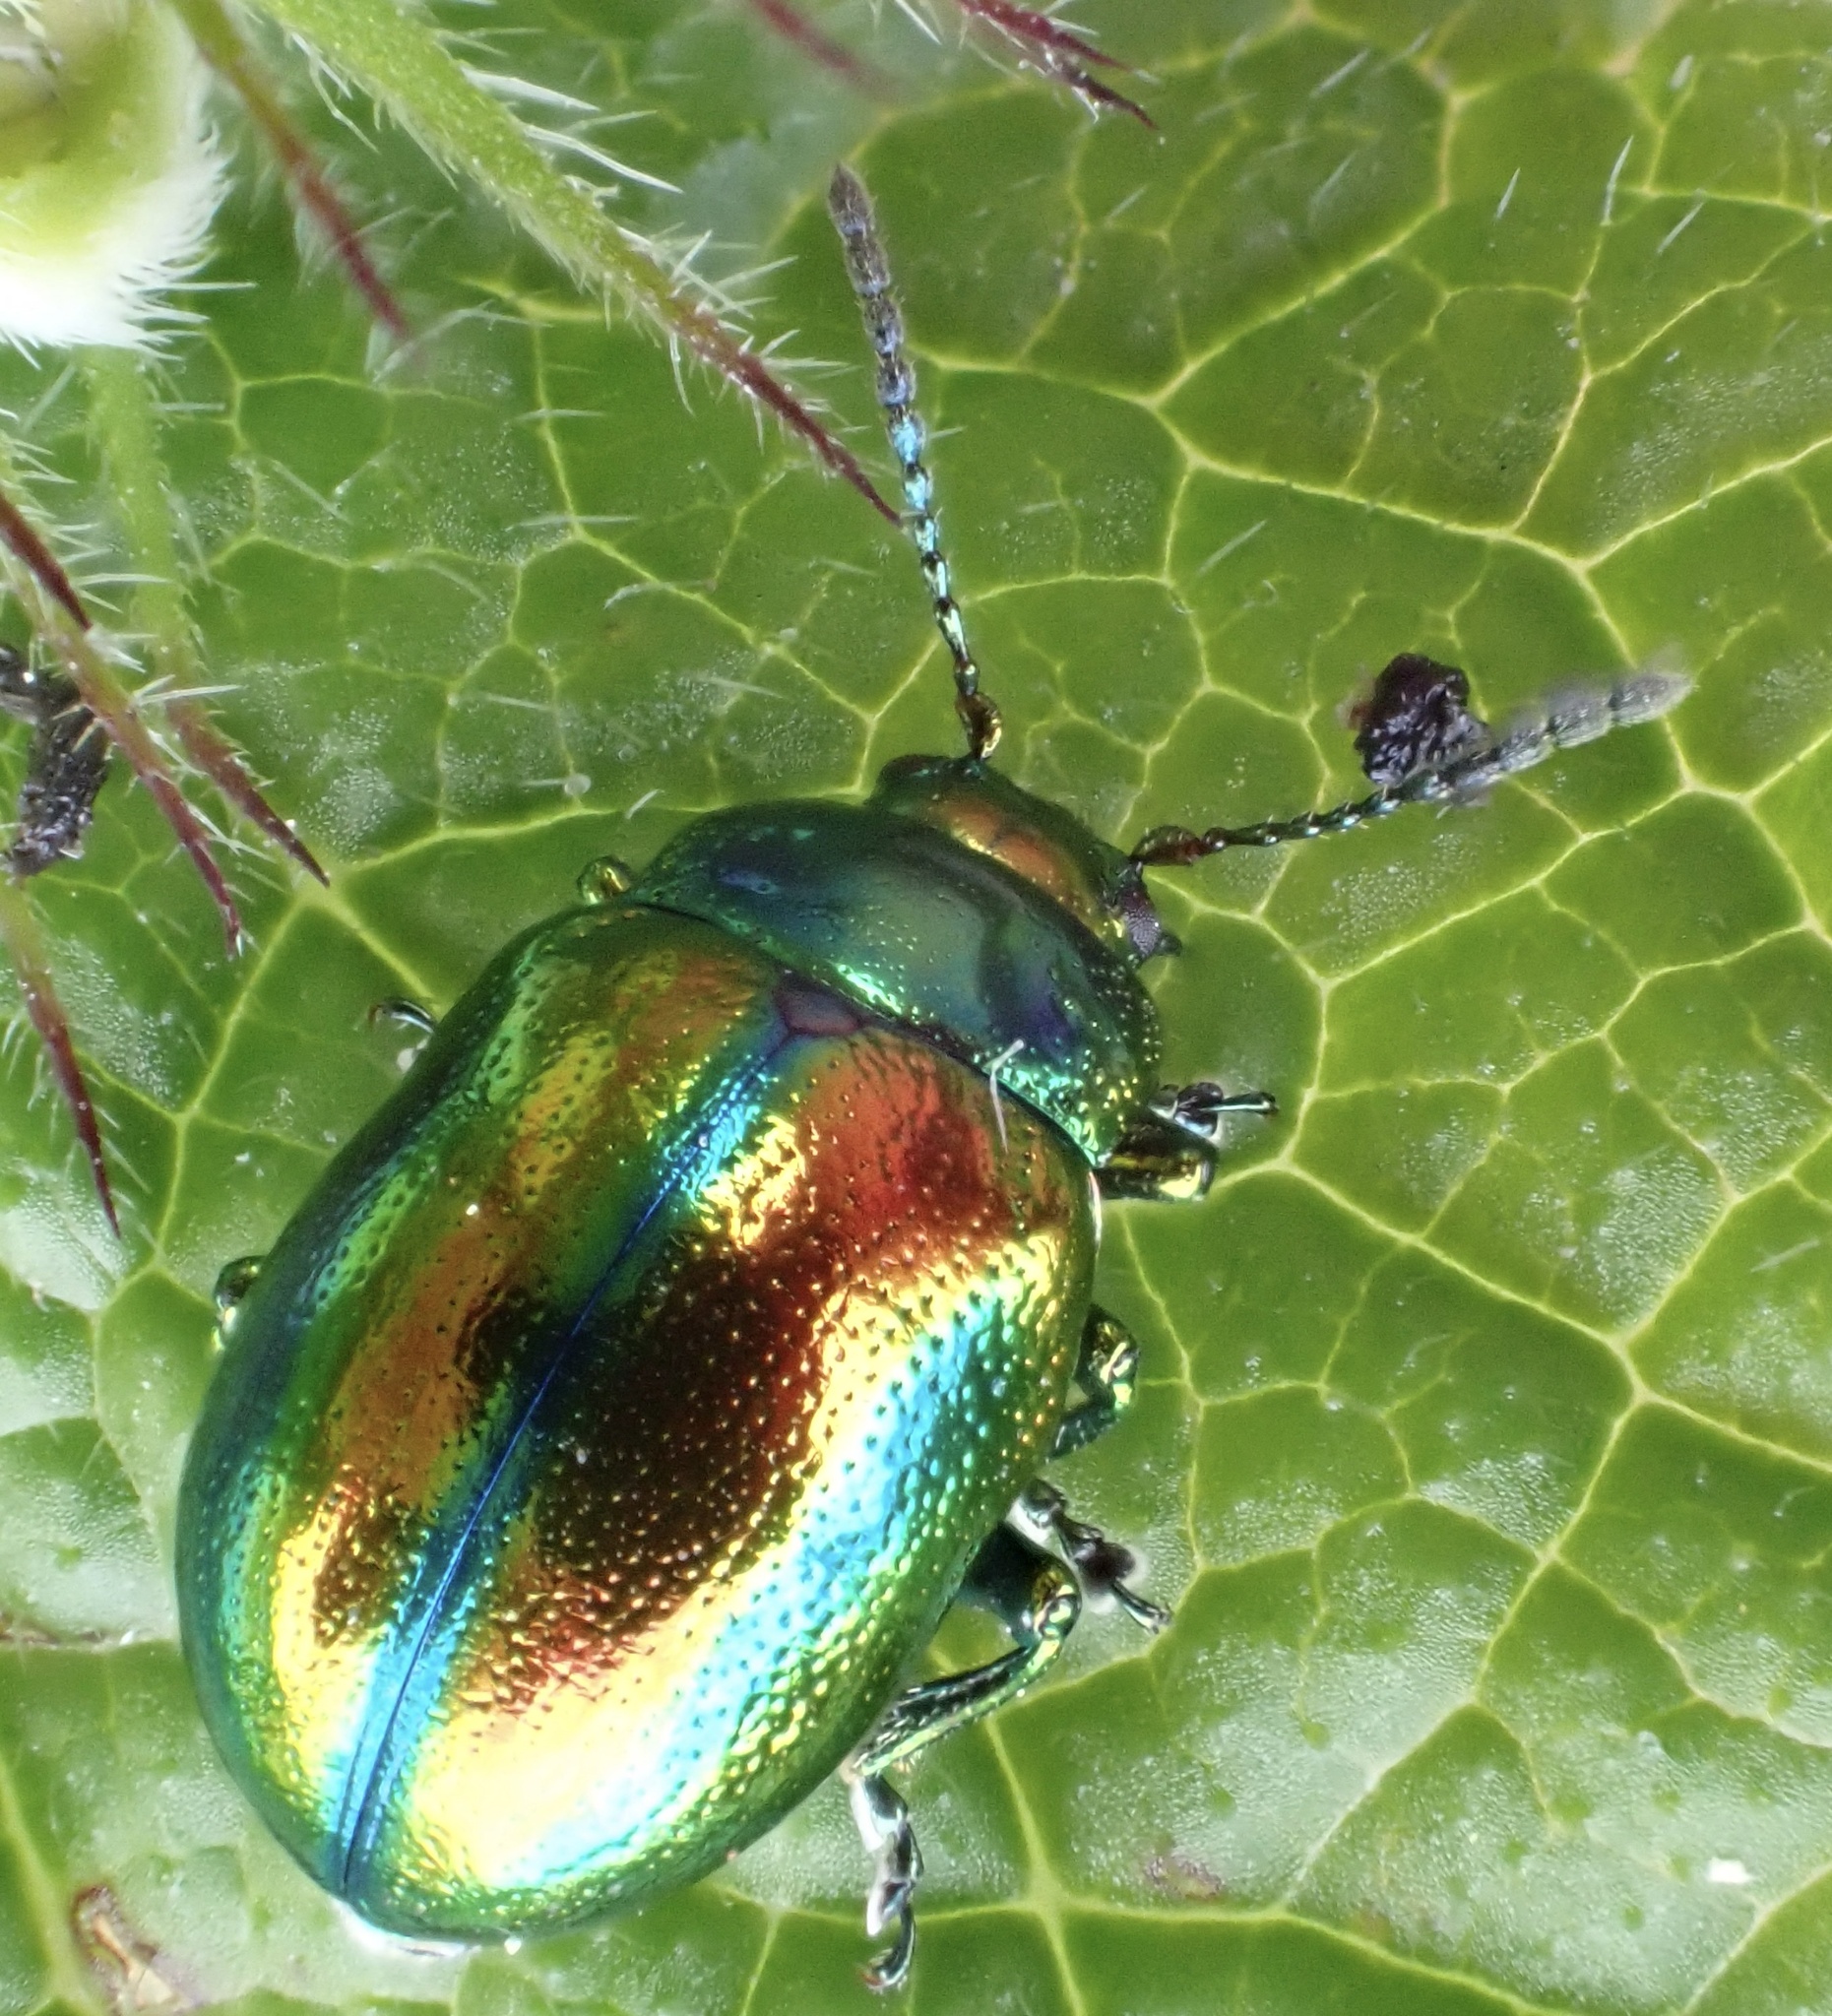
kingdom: Animalia
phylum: Arthropoda
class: Insecta
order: Coleoptera
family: Chrysomelidae
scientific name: Chrysomelidae
